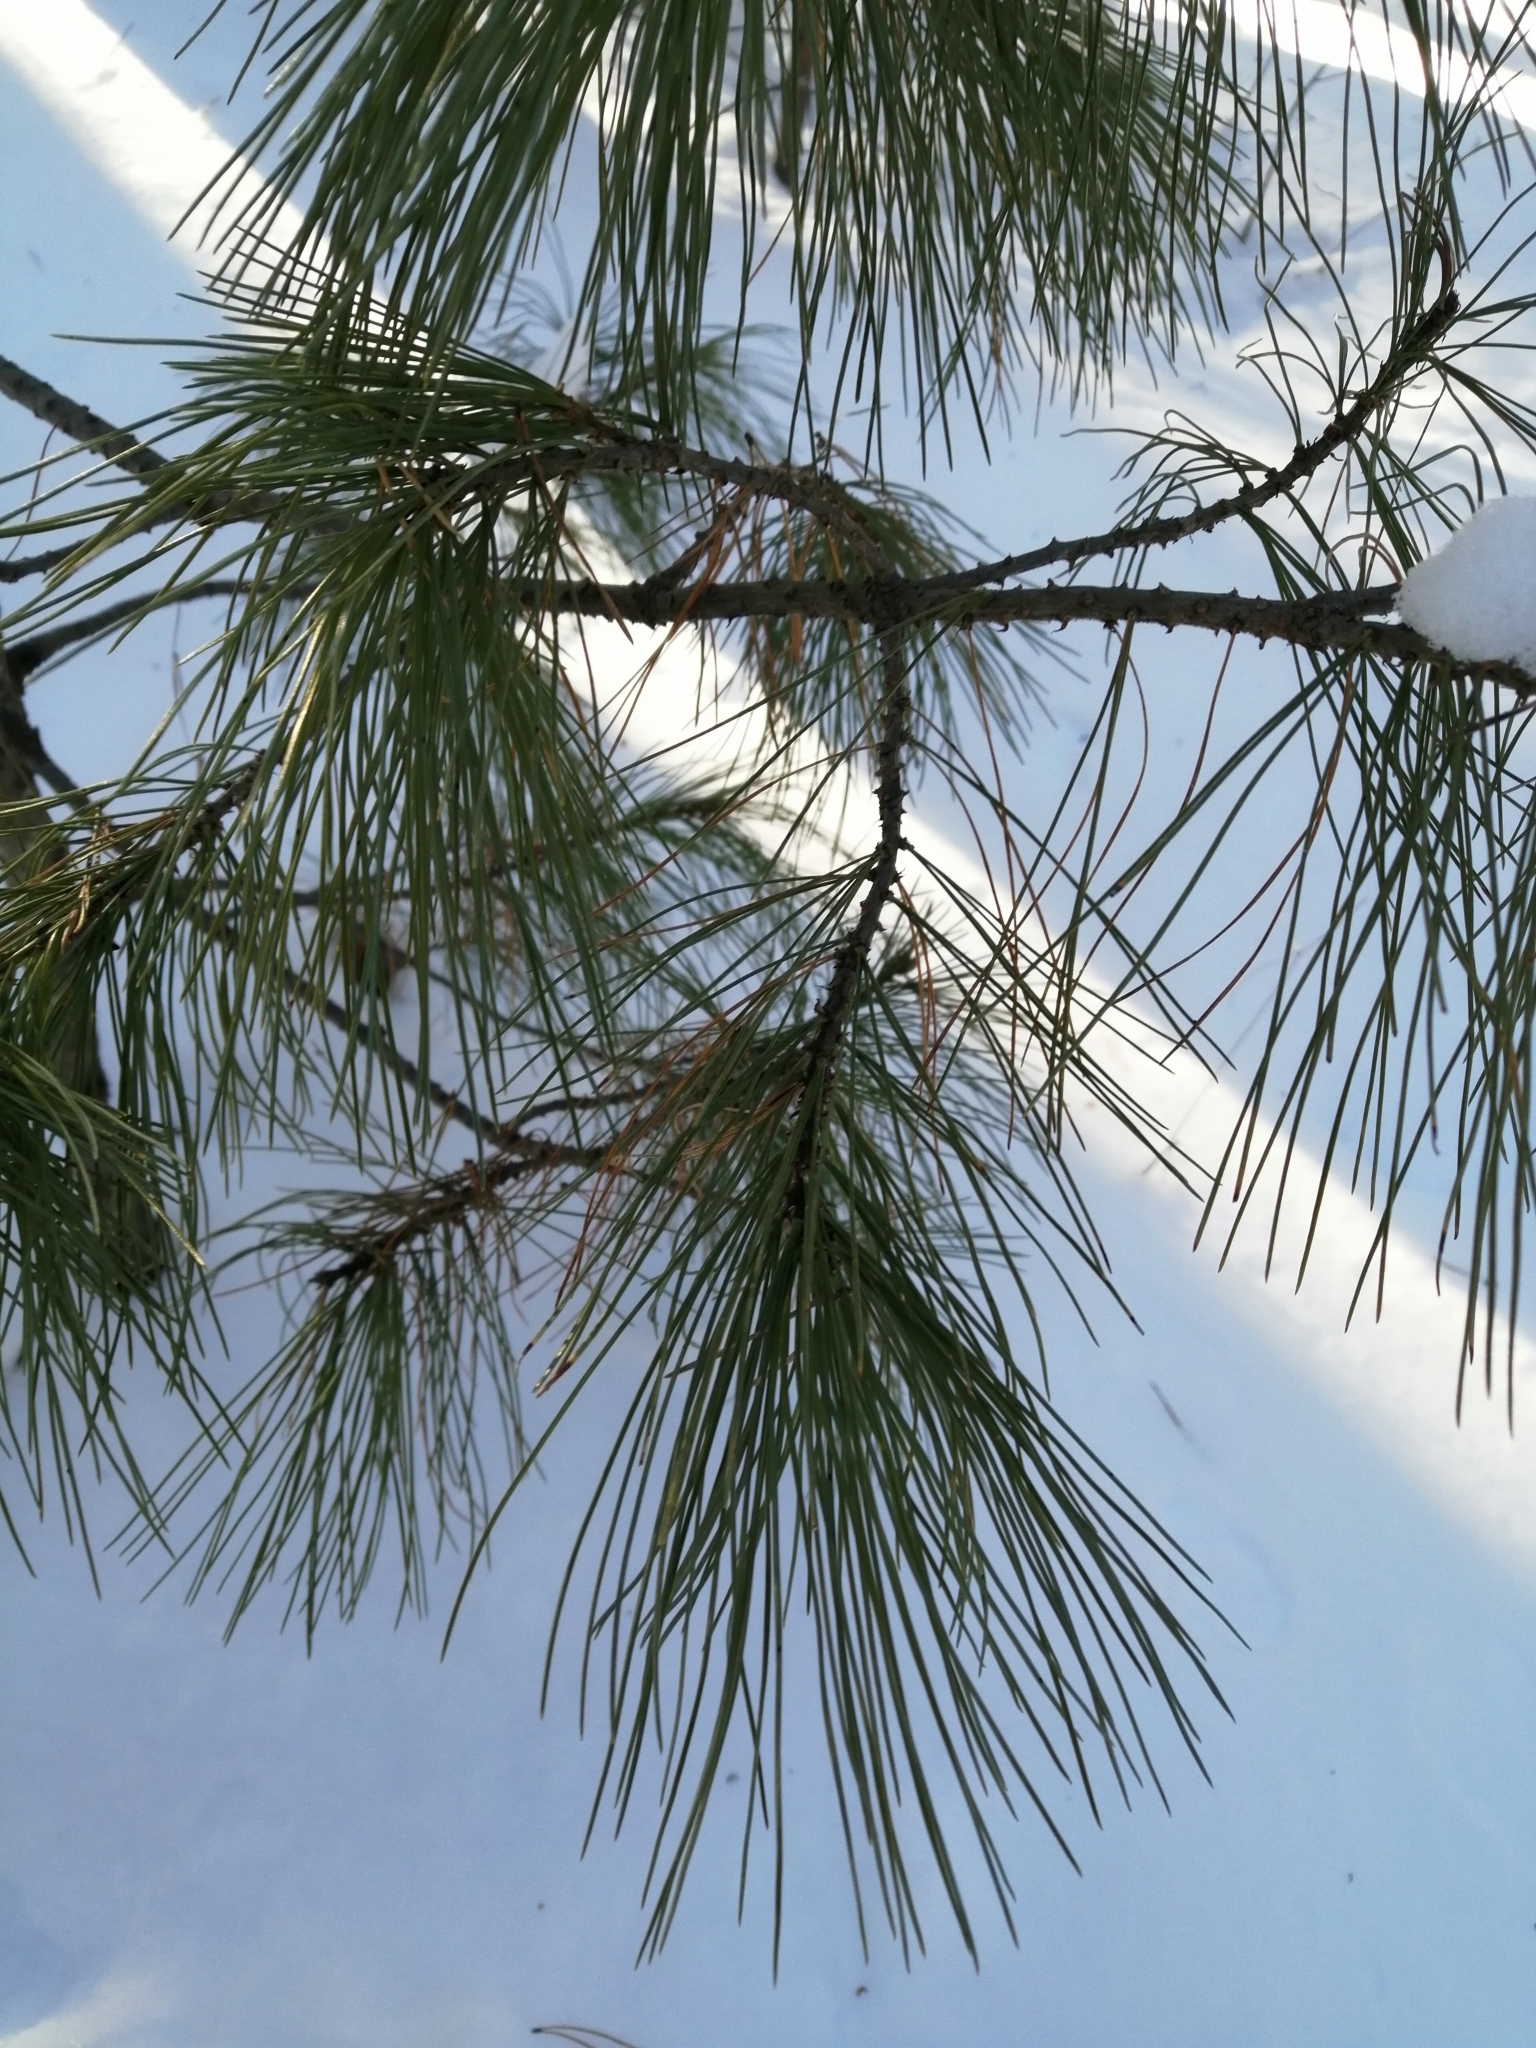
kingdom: Plantae
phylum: Tracheophyta
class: Pinopsida
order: Pinales
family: Pinaceae
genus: Pinus
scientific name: Pinus sibirica
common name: Siberian pine
